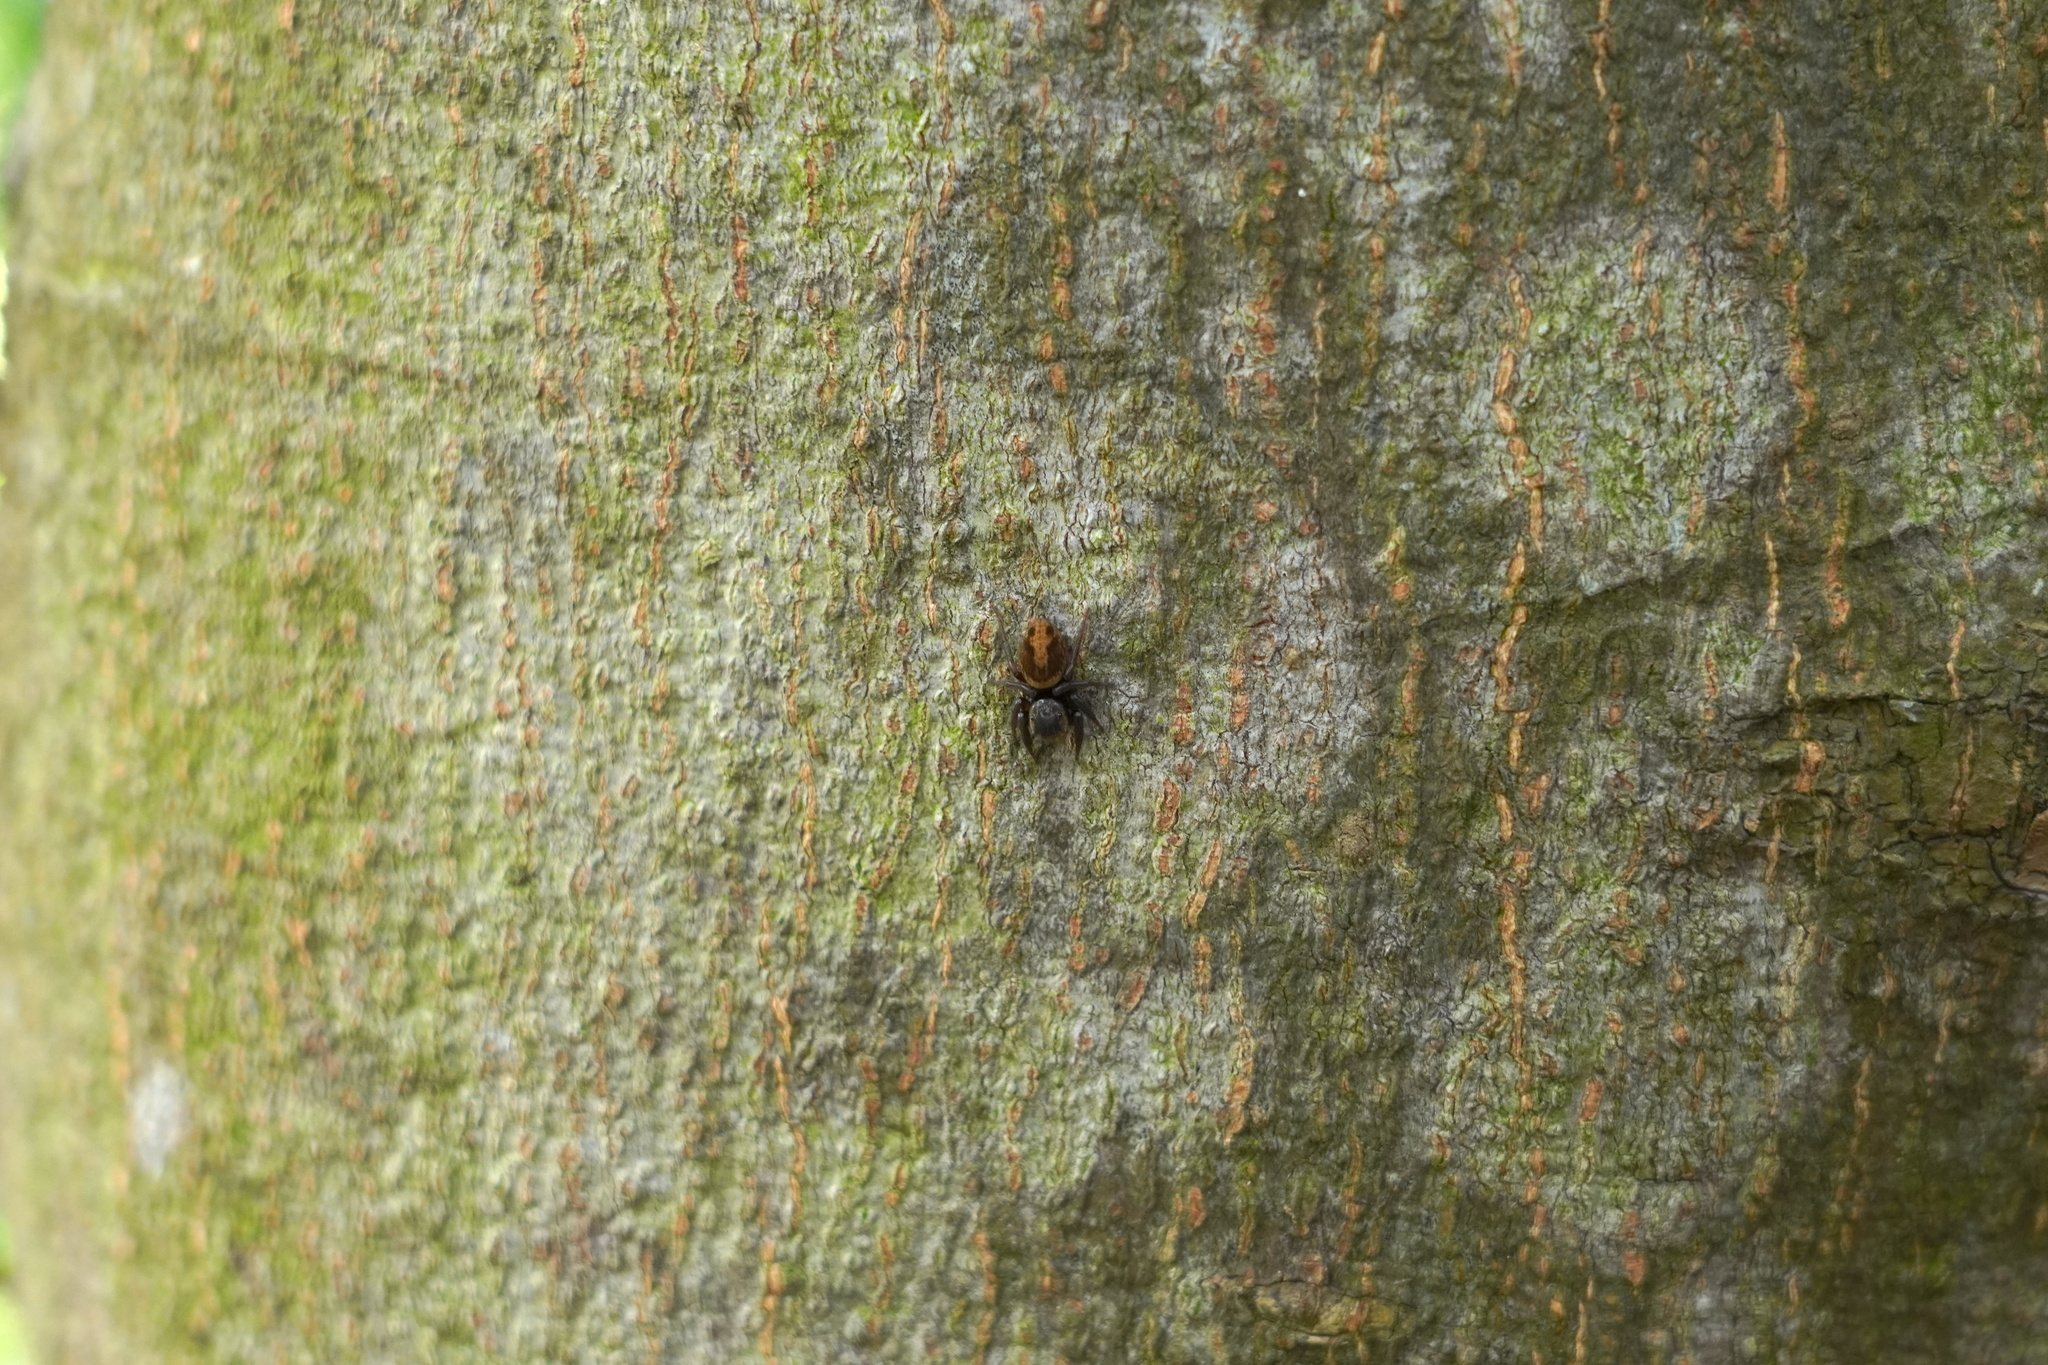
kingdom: Animalia
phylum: Arthropoda
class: Arachnida
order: Araneae
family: Salticidae
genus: Hasarius
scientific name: Hasarius adansoni
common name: Jumping spider
